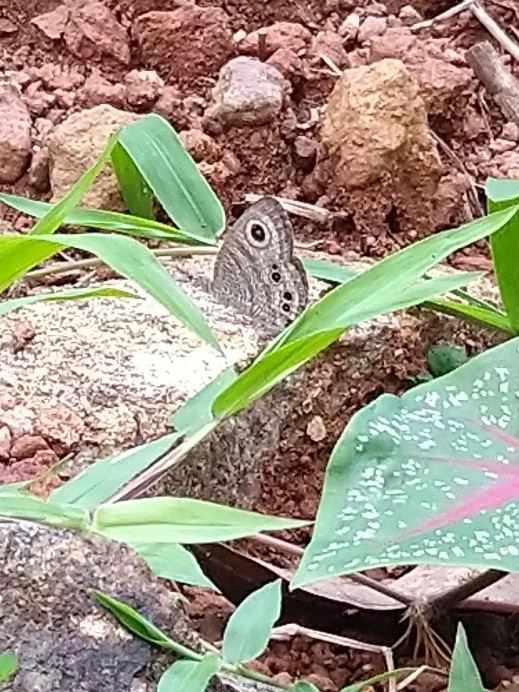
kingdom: Animalia
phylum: Arthropoda
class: Insecta
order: Lepidoptera
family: Nymphalidae
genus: Ypthima
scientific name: Ypthima baldus
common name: Common five-ring
